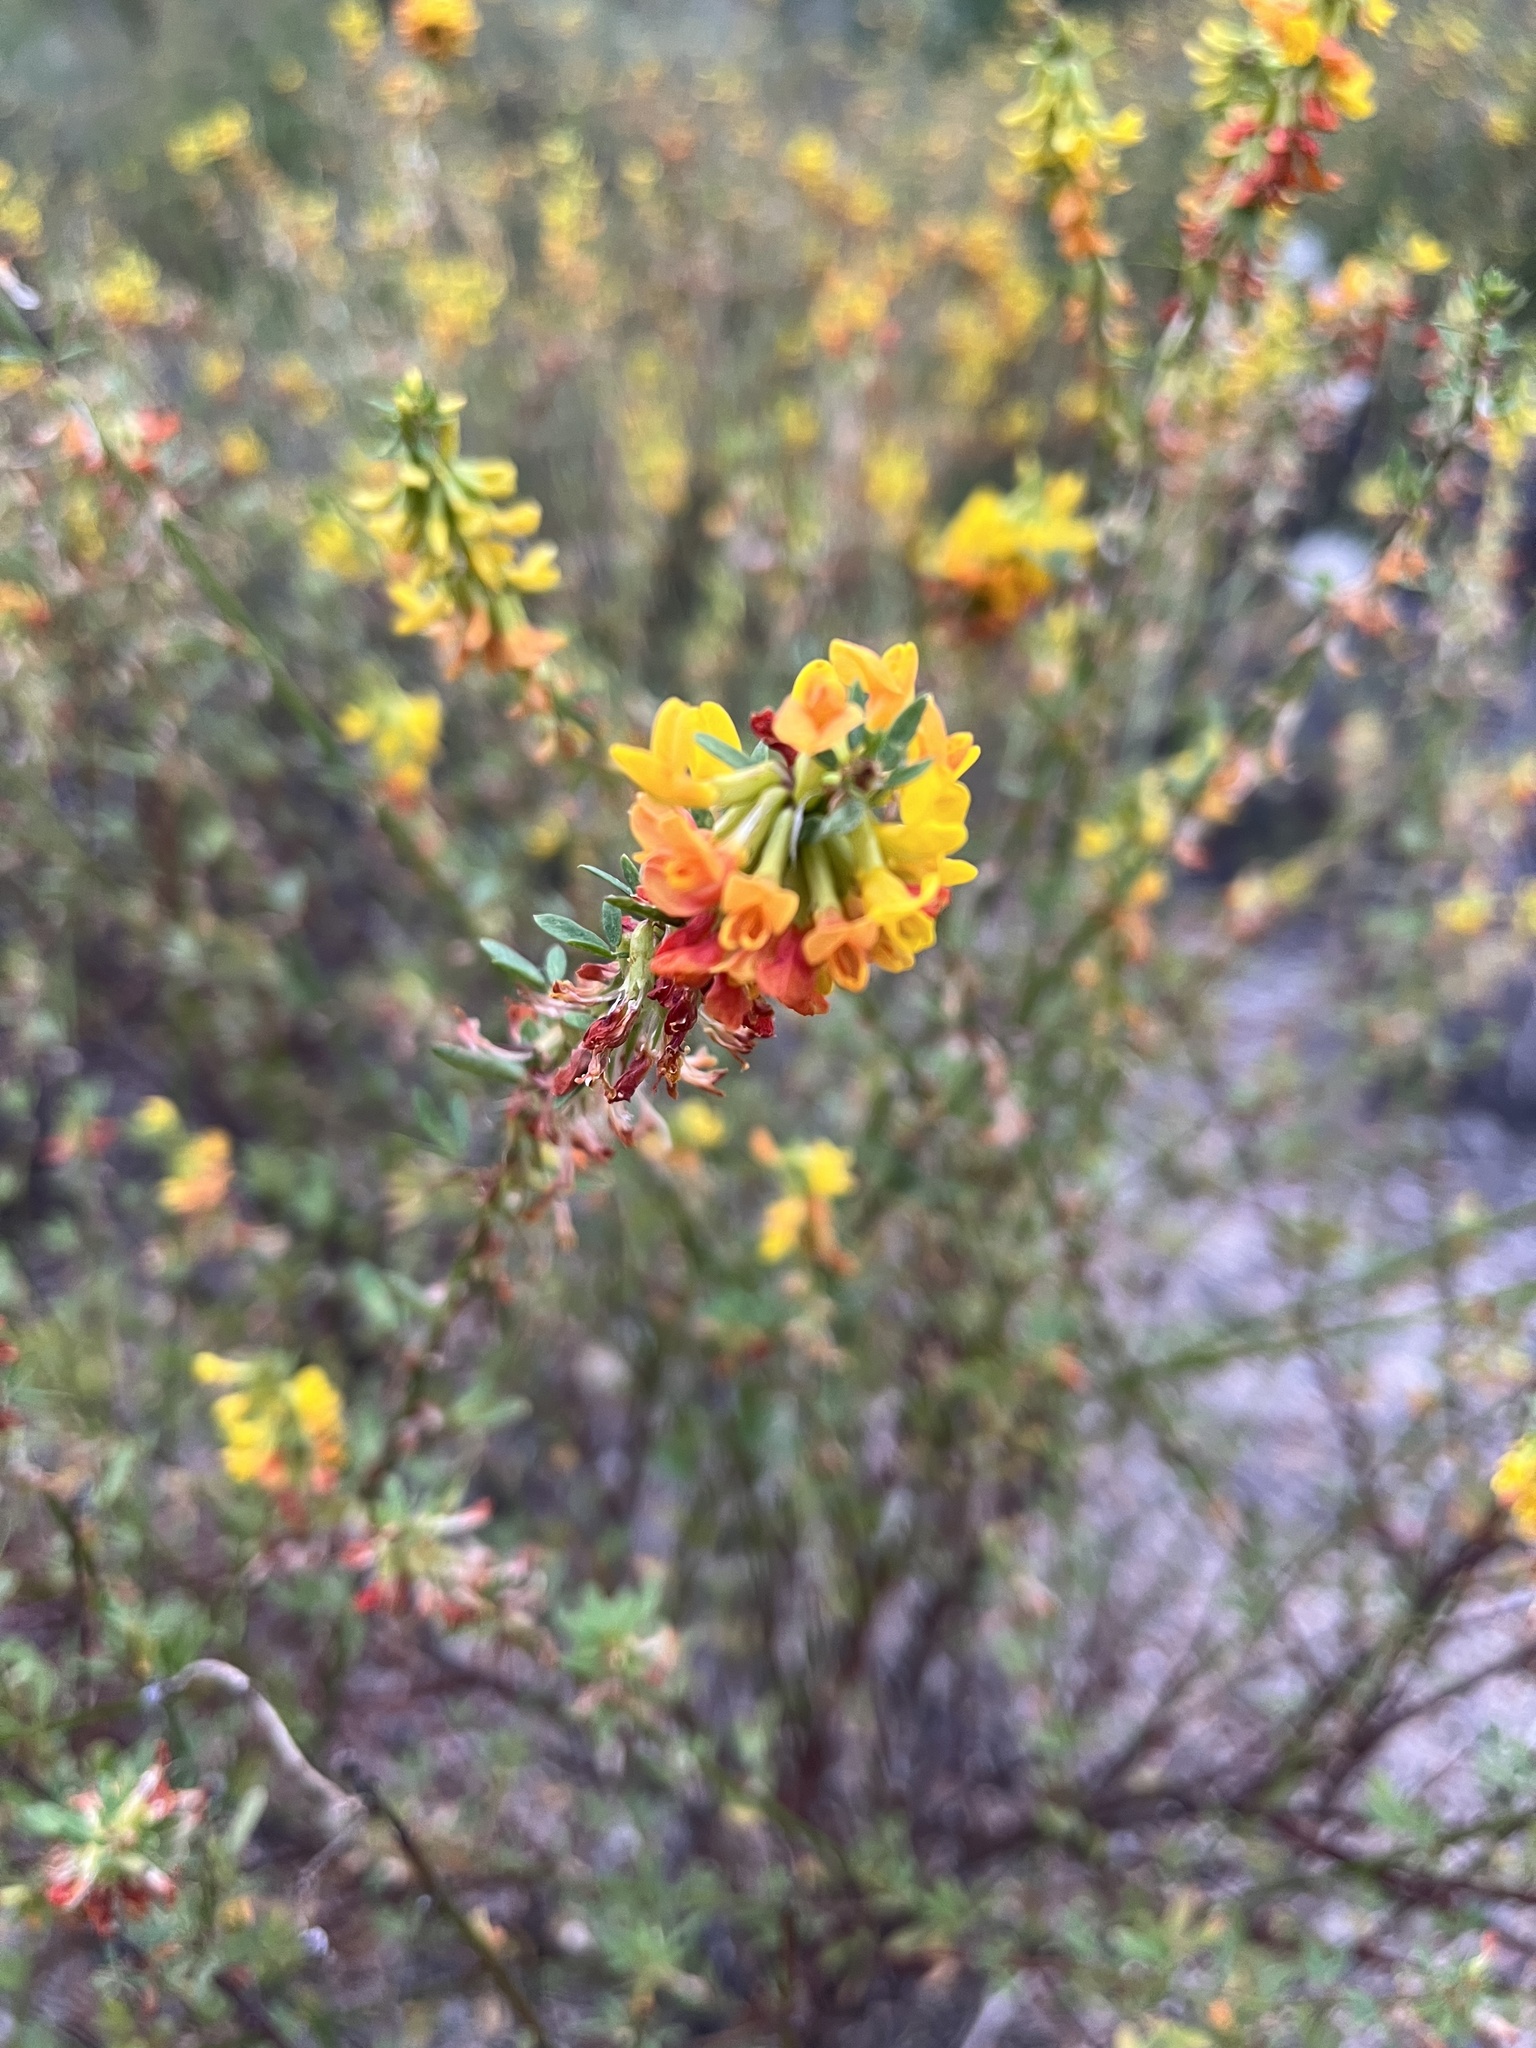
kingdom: Plantae
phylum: Tracheophyta
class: Magnoliopsida
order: Fabales
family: Fabaceae
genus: Acmispon
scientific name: Acmispon glaber
